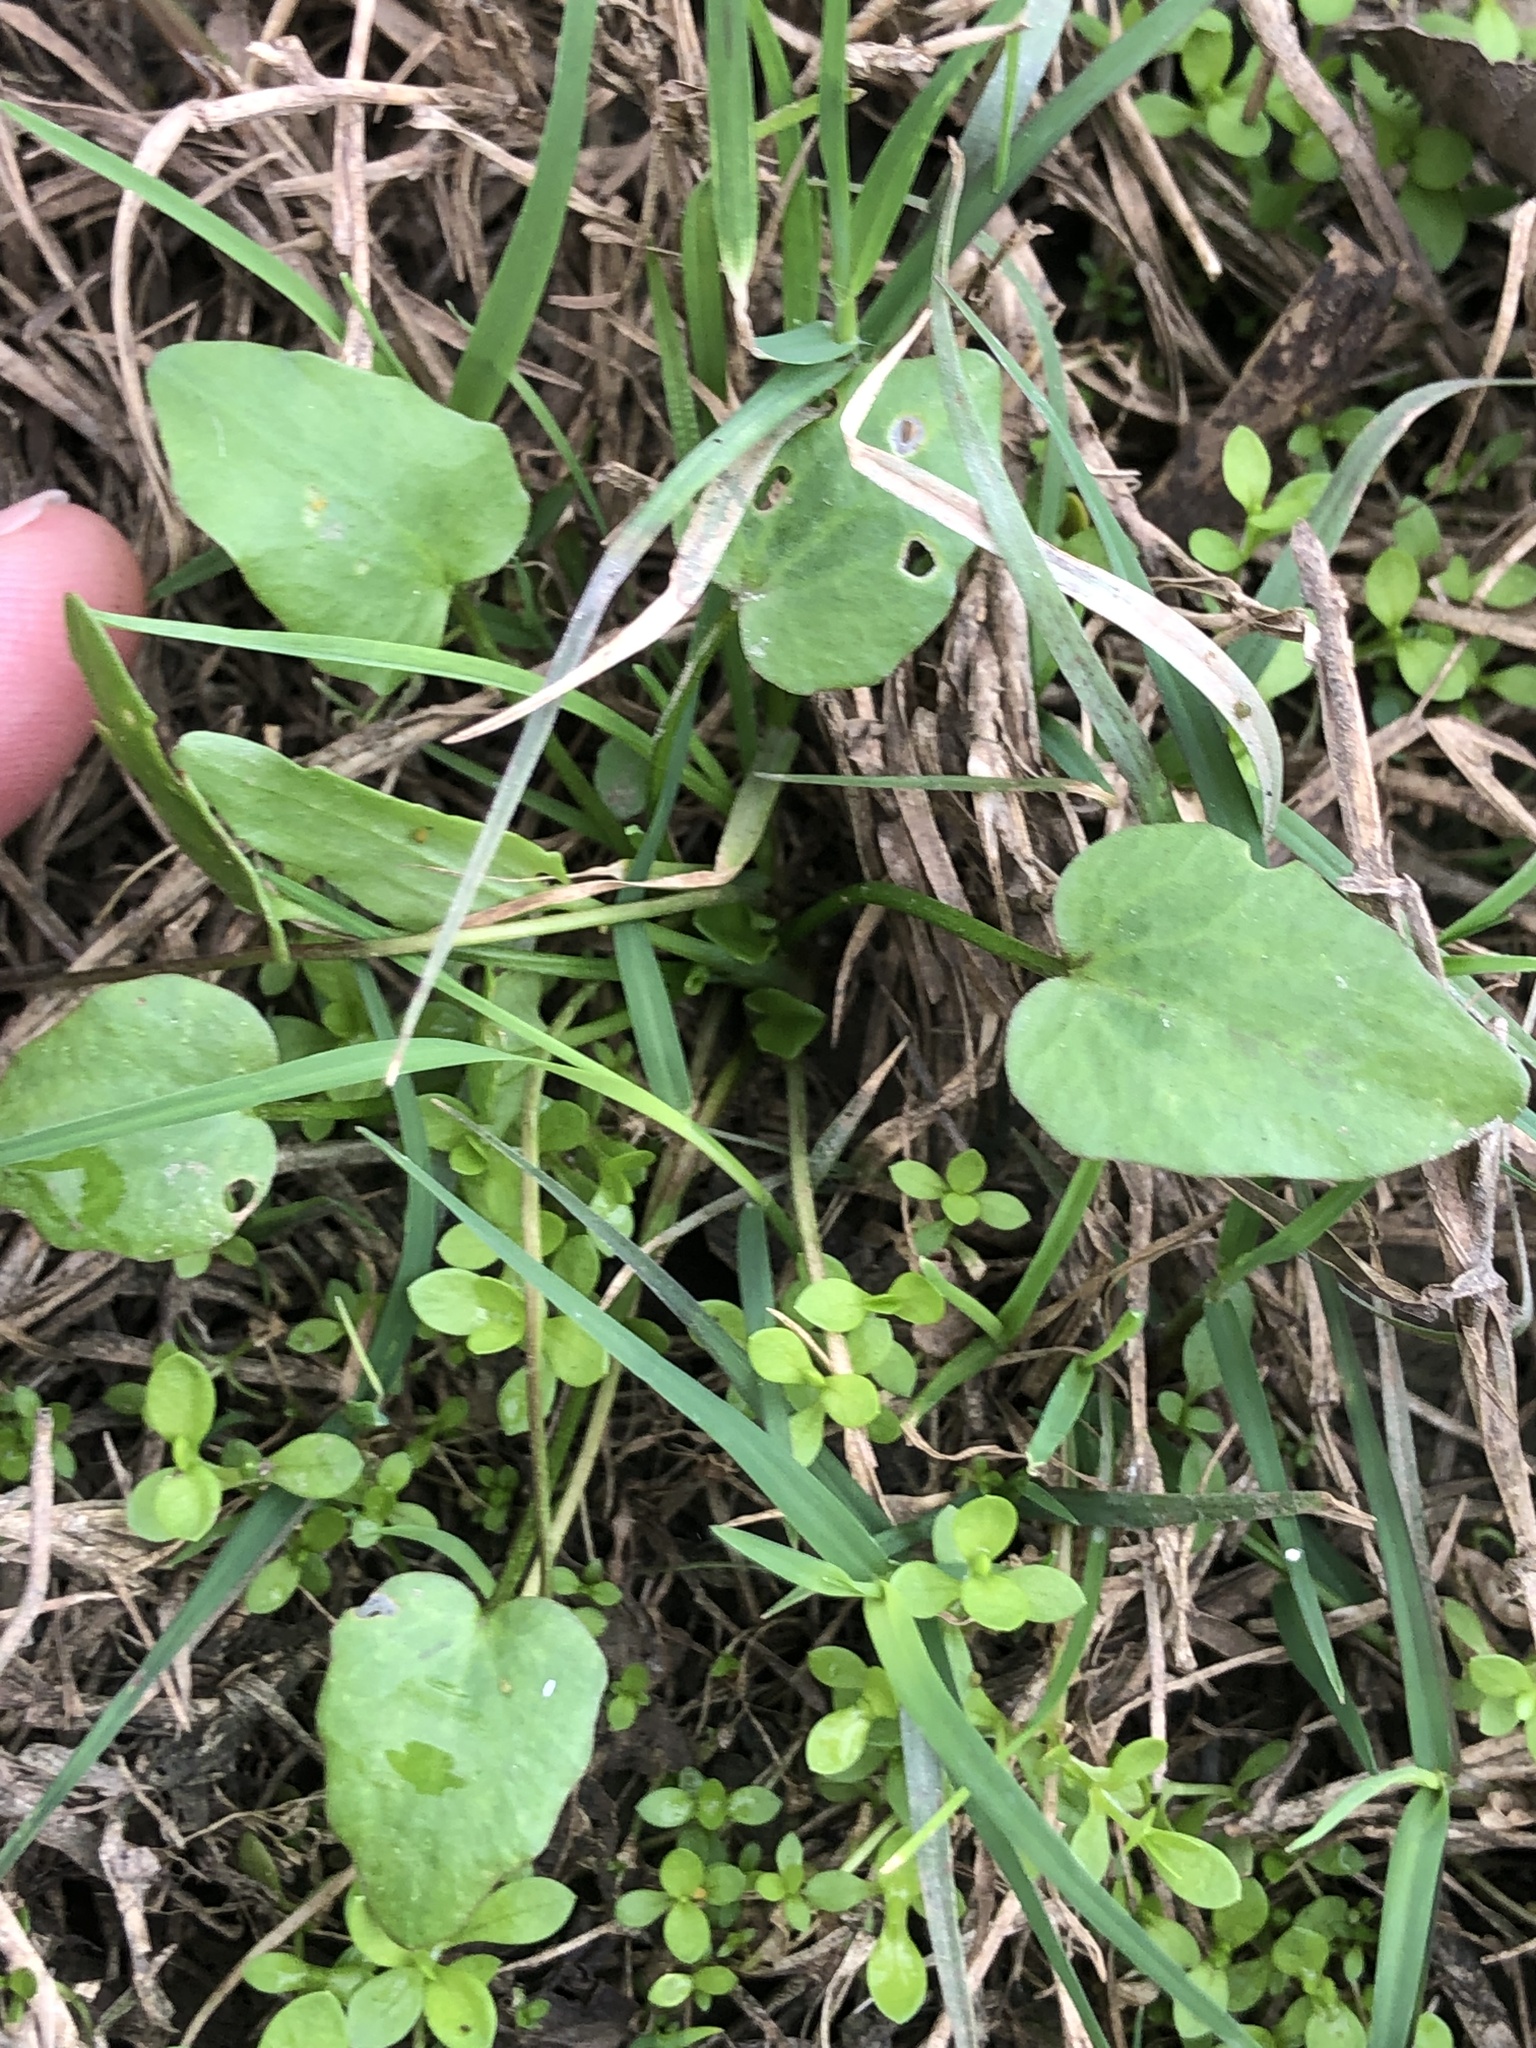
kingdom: Plantae
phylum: Tracheophyta
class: Magnoliopsida
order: Ranunculales
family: Ranunculaceae
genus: Ranunculus
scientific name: Ranunculus pusillus
